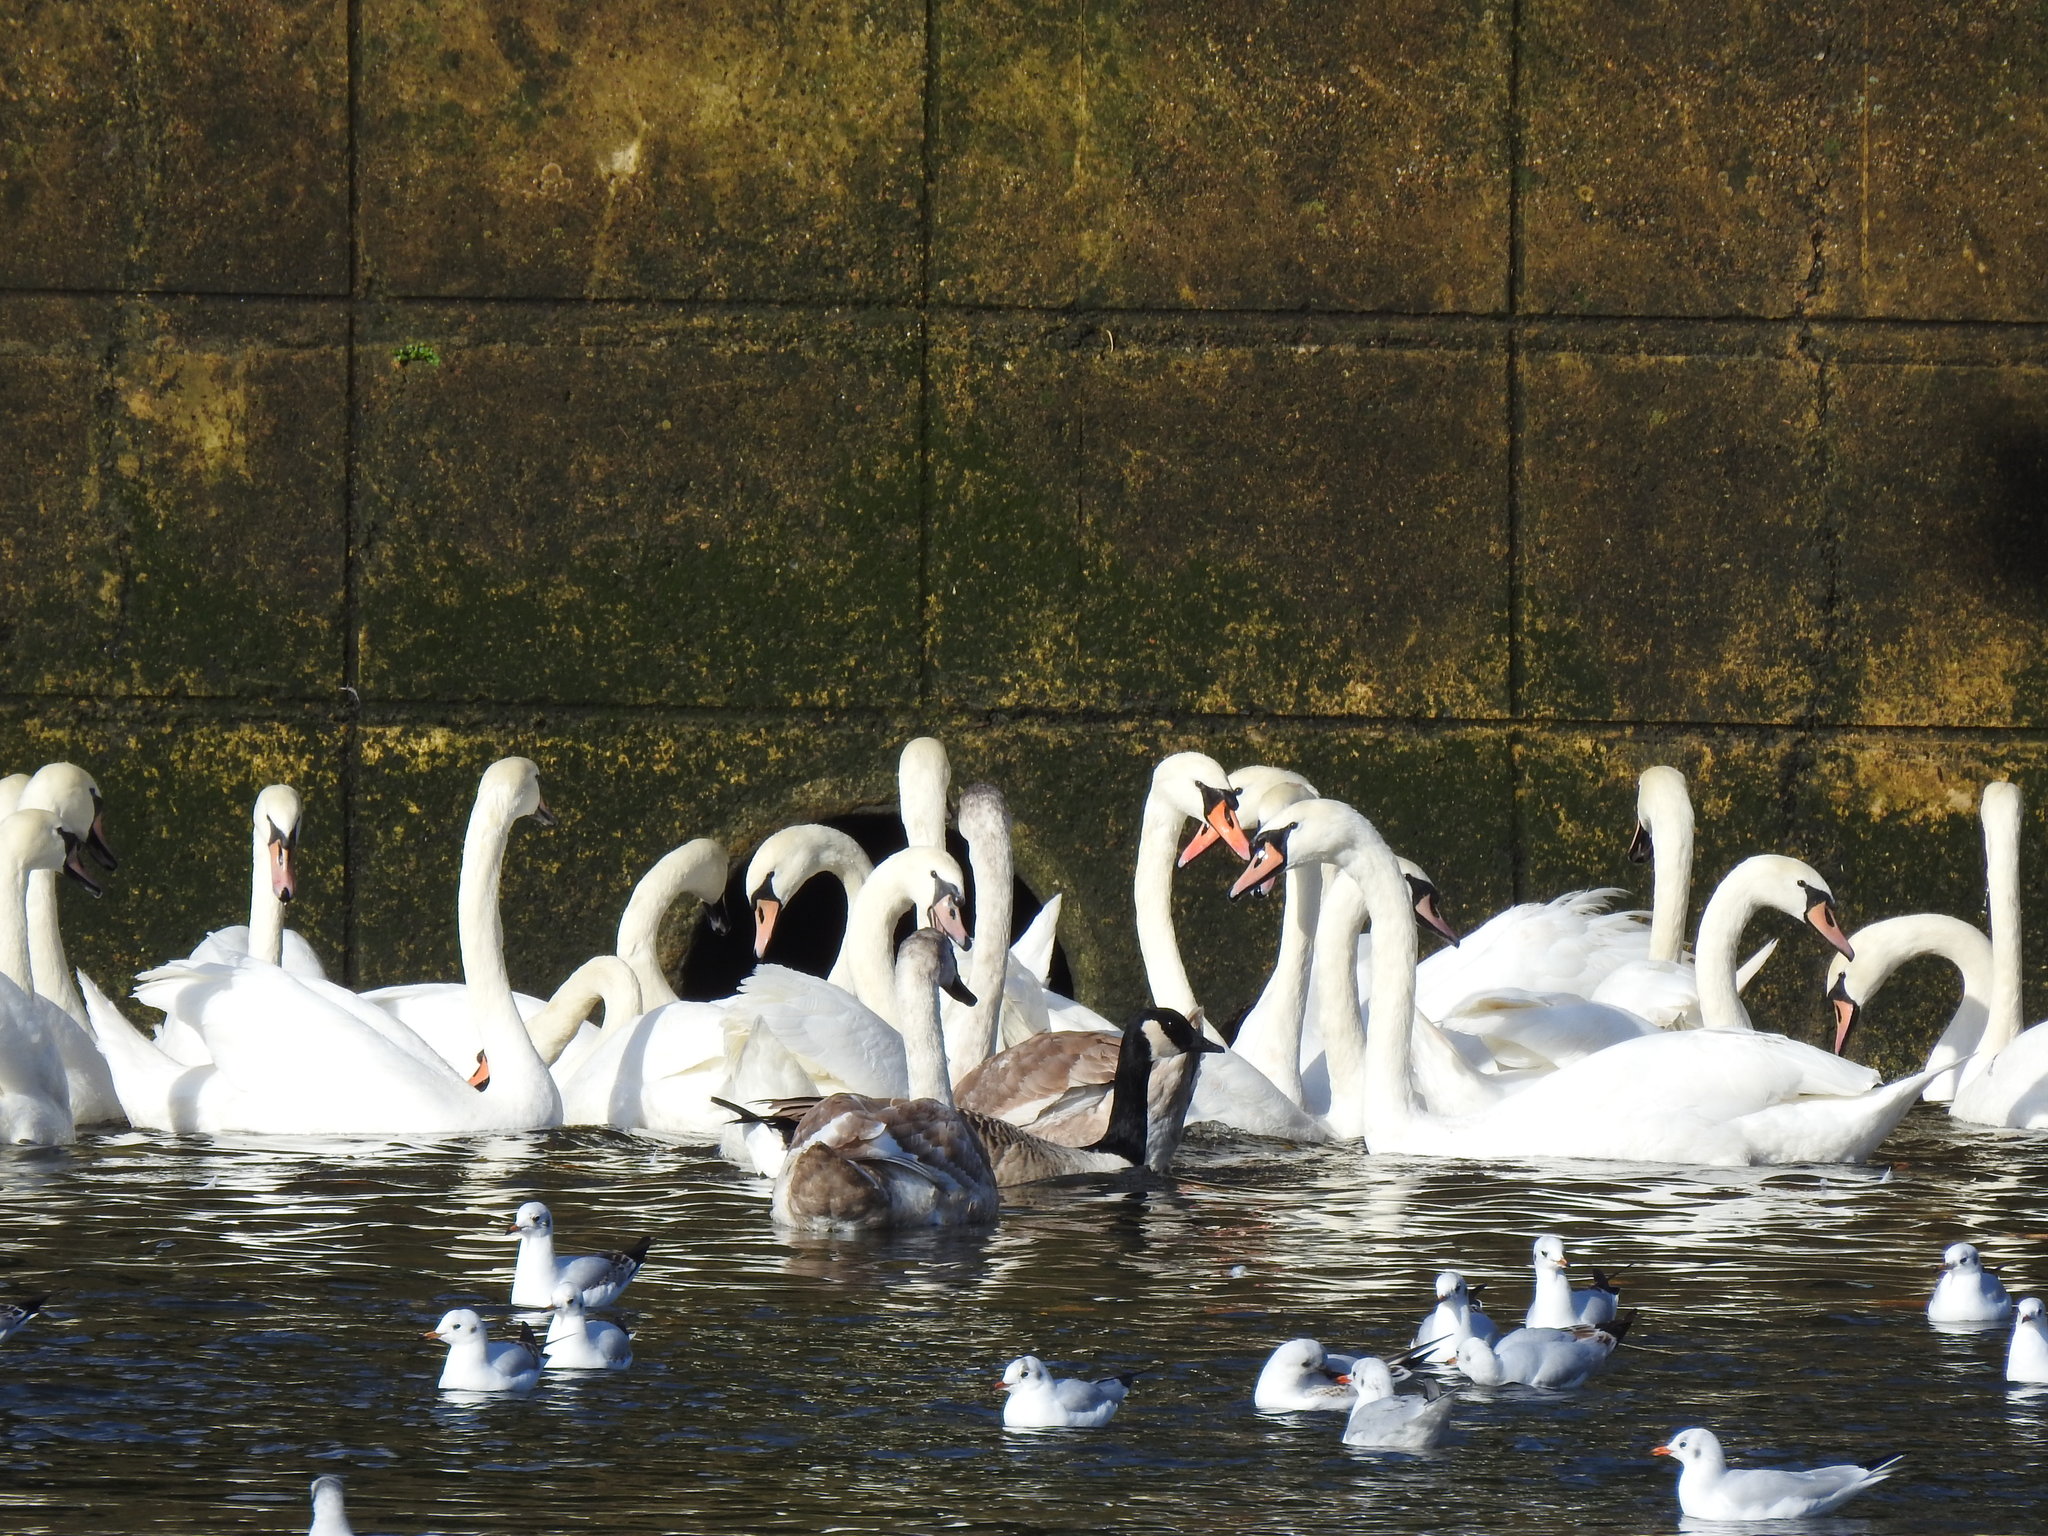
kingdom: Animalia
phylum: Chordata
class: Aves
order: Anseriformes
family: Anatidae
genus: Cygnus
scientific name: Cygnus olor
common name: Mute swan
